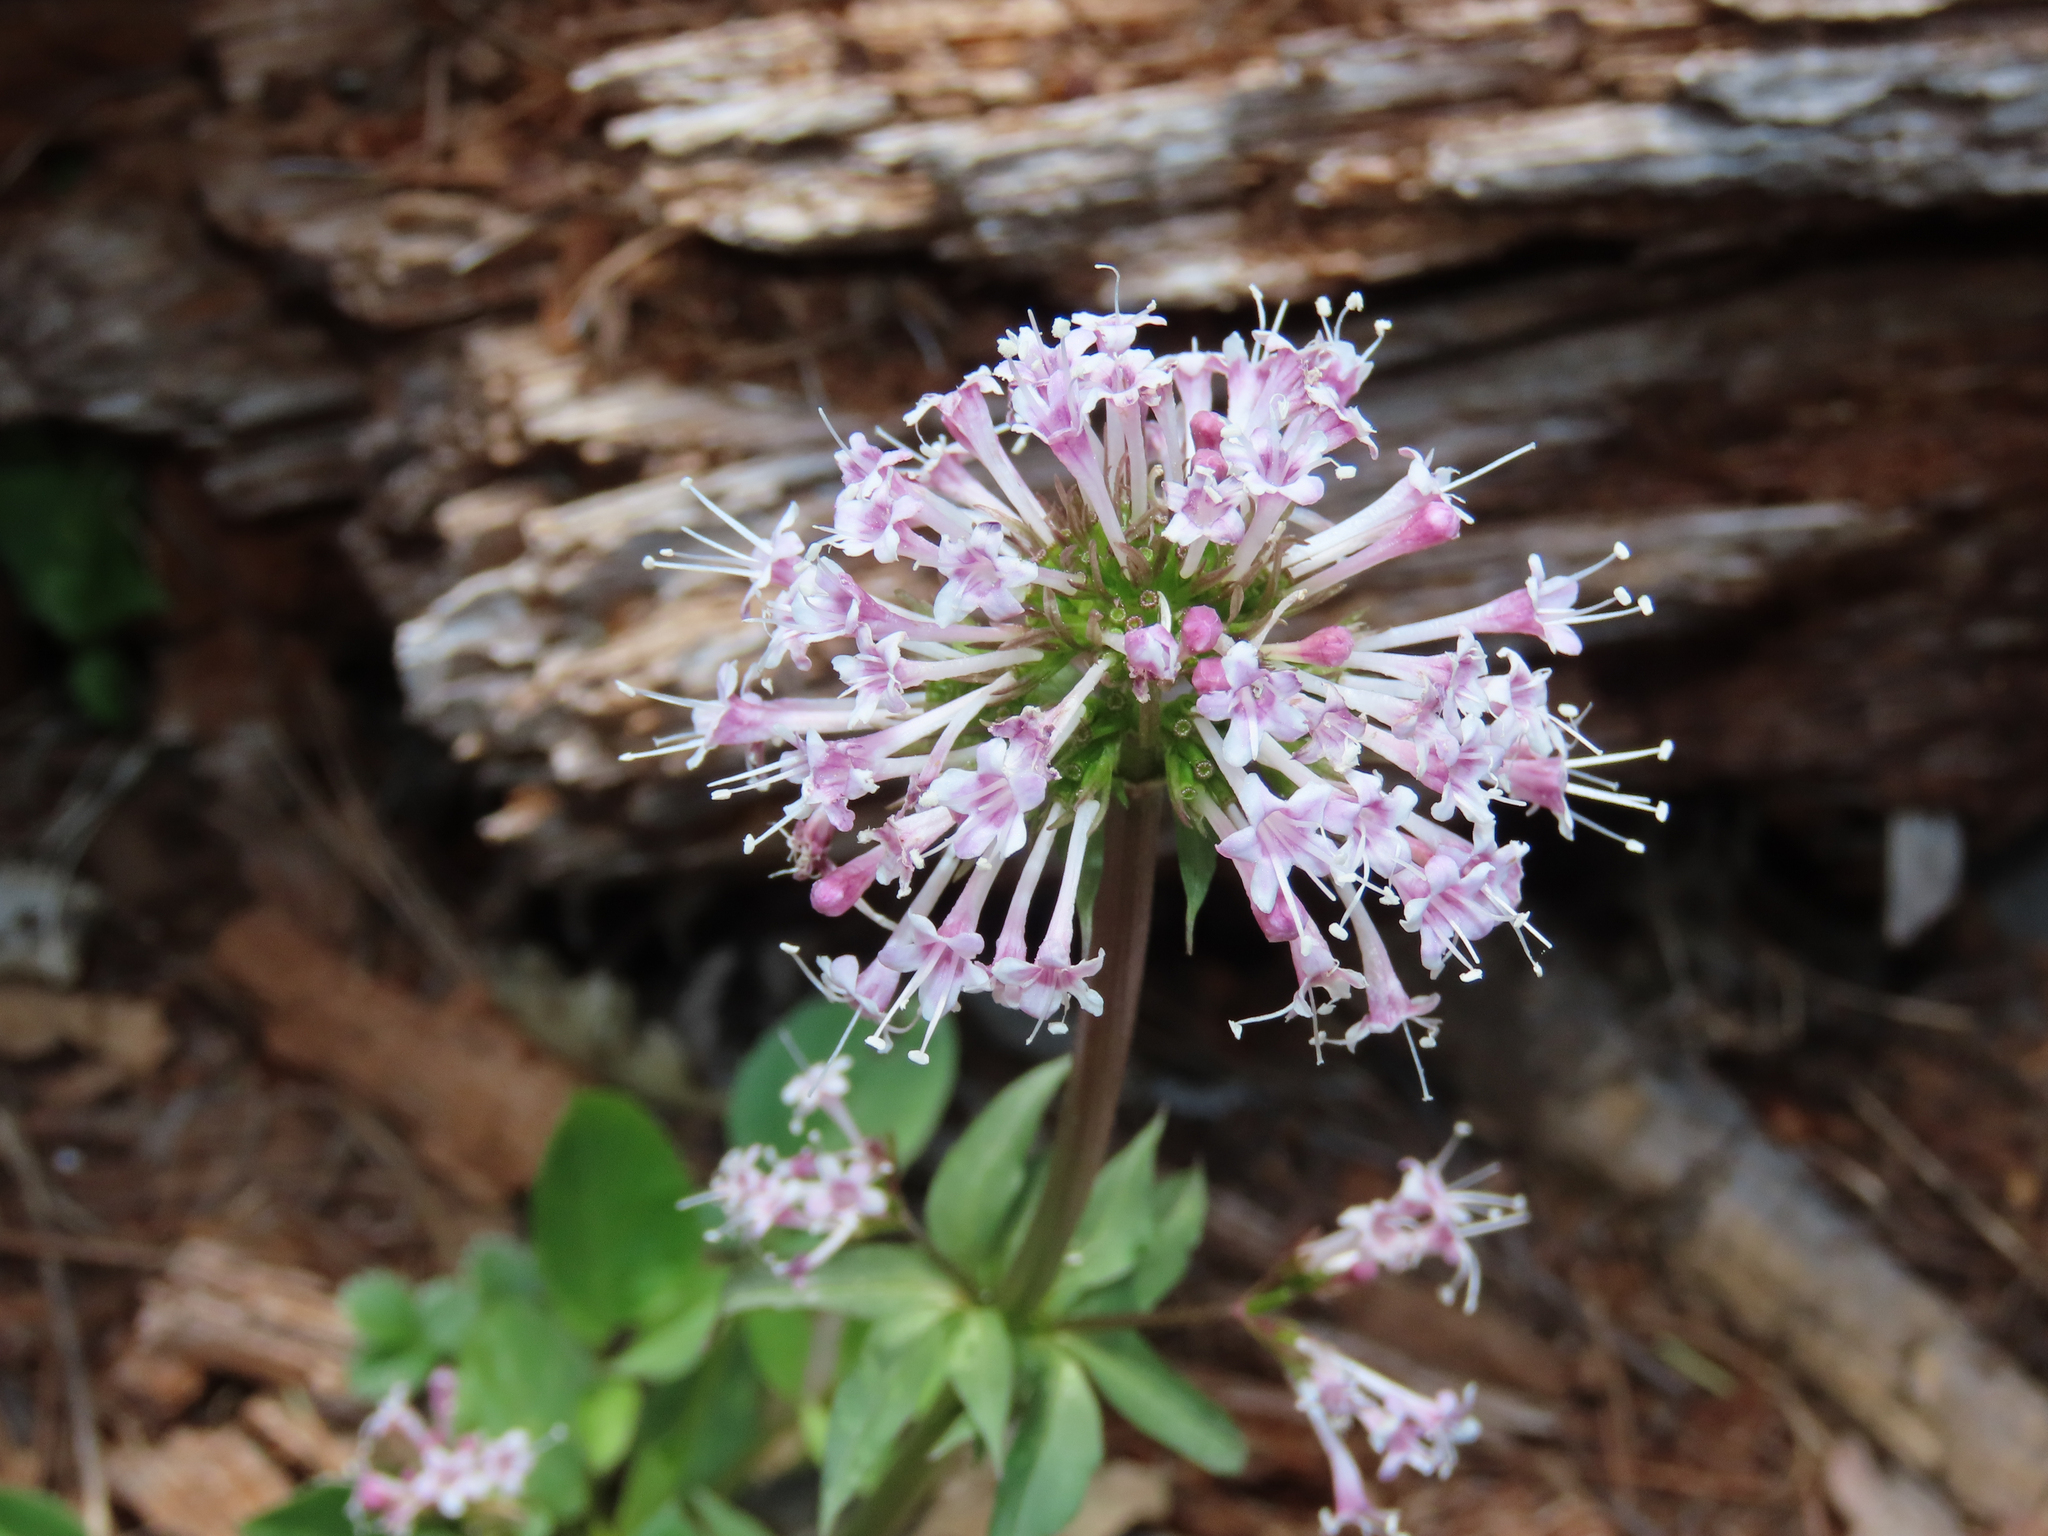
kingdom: Plantae
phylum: Tracheophyta
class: Magnoliopsida
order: Dipsacales
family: Caprifoliaceae
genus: Valeriana
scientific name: Valeriana arizonica
